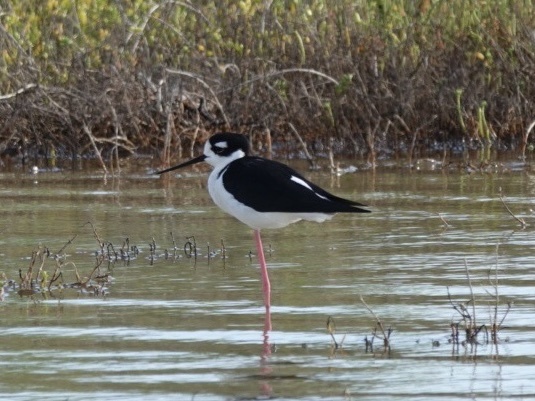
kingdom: Animalia
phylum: Chordata
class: Aves
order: Charadriiformes
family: Recurvirostridae
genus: Himantopus
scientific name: Himantopus mexicanus
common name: Black-necked stilt
